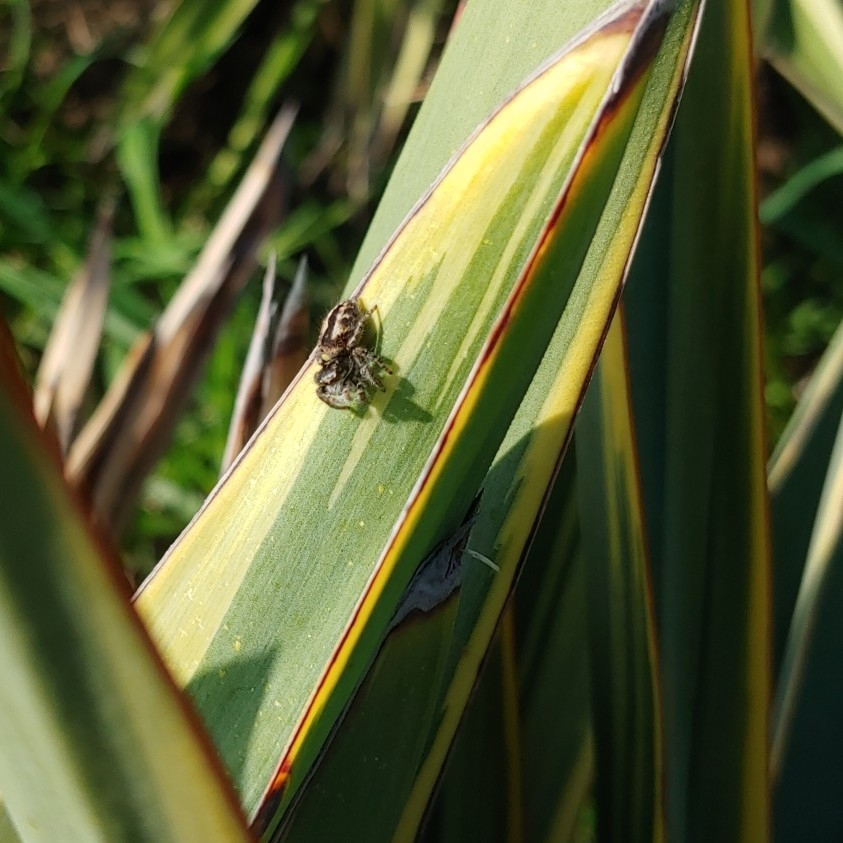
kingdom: Animalia
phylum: Arthropoda
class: Arachnida
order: Araneae
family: Salticidae
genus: Philaeus
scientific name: Philaeus chrysops
